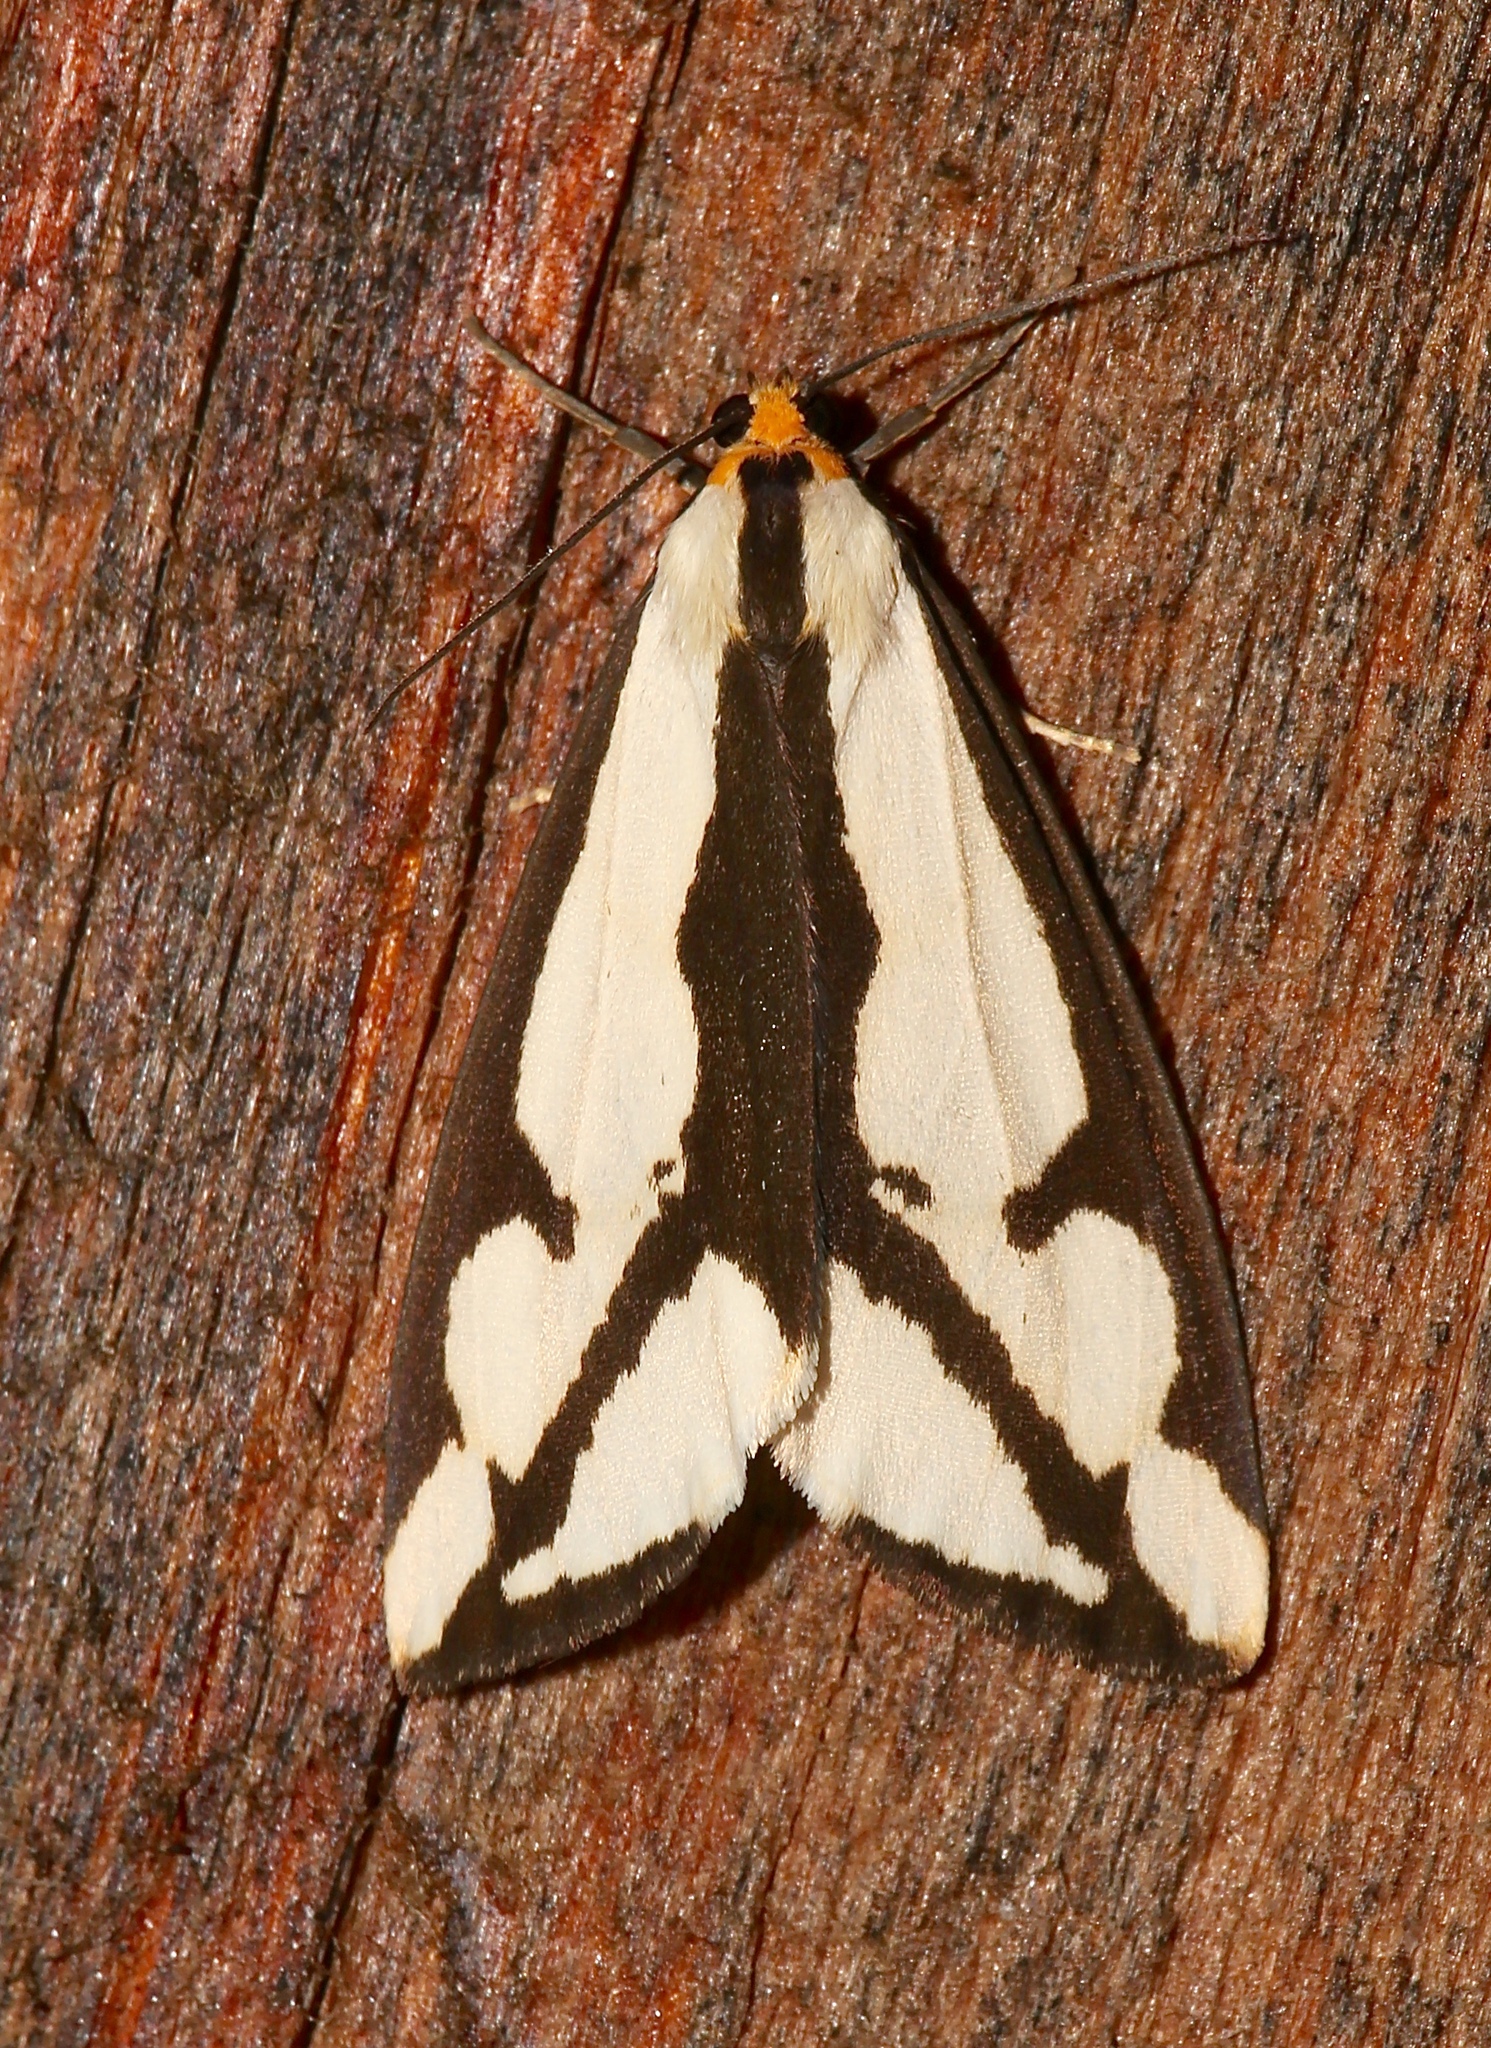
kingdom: Animalia
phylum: Arthropoda
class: Insecta
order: Lepidoptera
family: Erebidae
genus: Haploa
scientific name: Haploa lecontei
